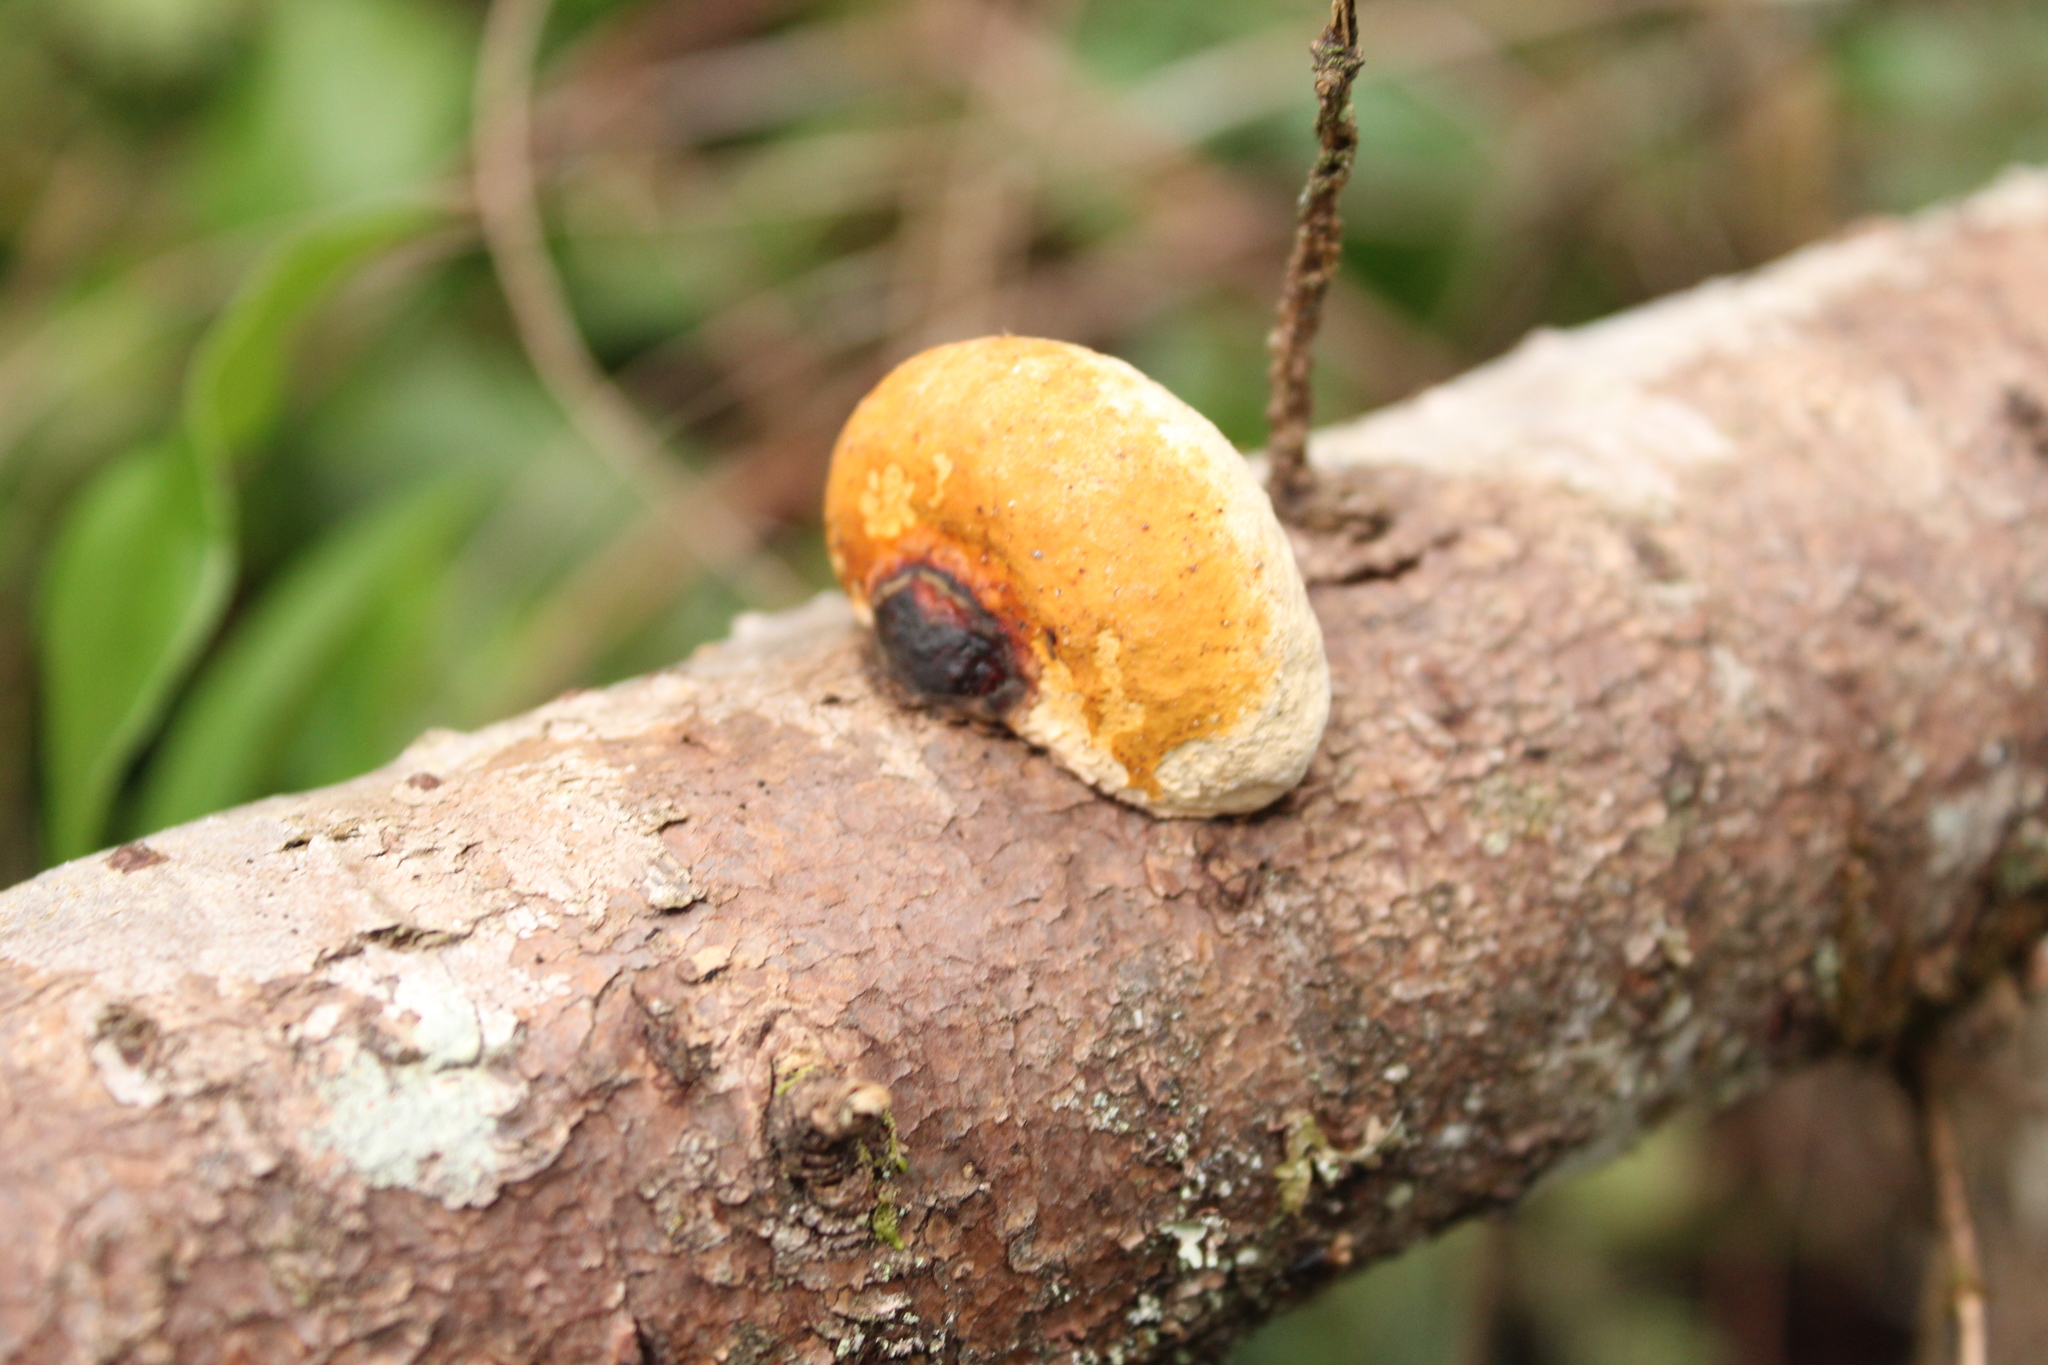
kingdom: Fungi
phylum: Basidiomycota
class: Agaricomycetes
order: Polyporales
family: Fomitopsidaceae
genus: Fomitopsis
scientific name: Fomitopsis mounceae
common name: Northern red belt
